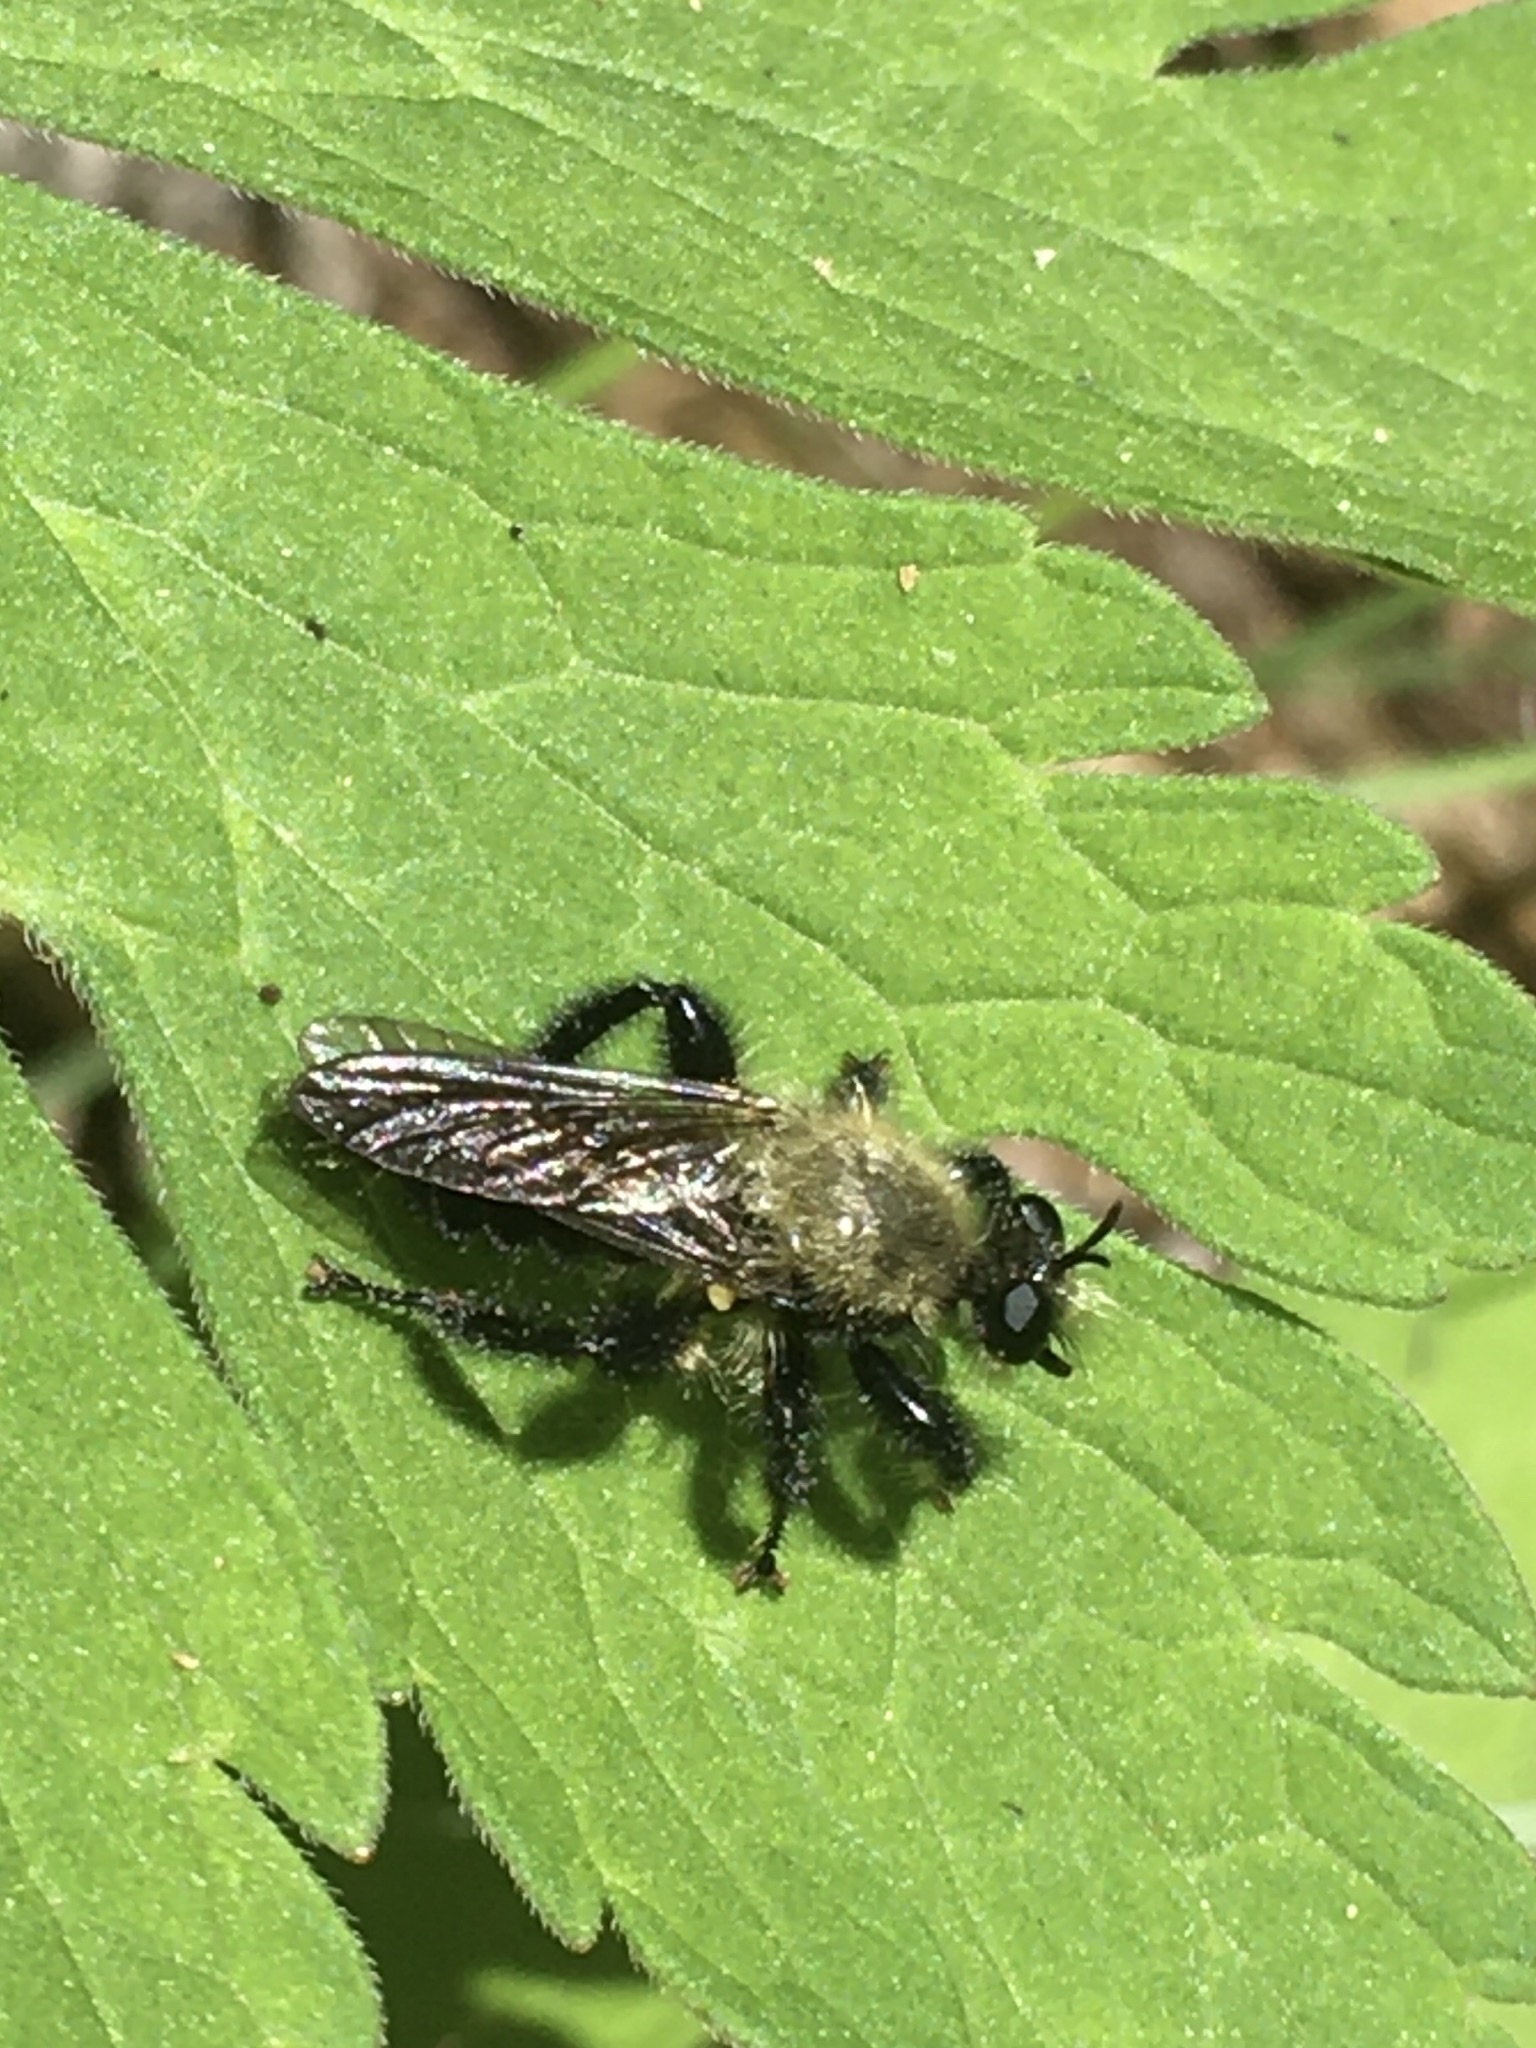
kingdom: Animalia
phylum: Arthropoda
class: Insecta
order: Diptera
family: Asilidae
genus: Laphria
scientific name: Laphria flavicollis
